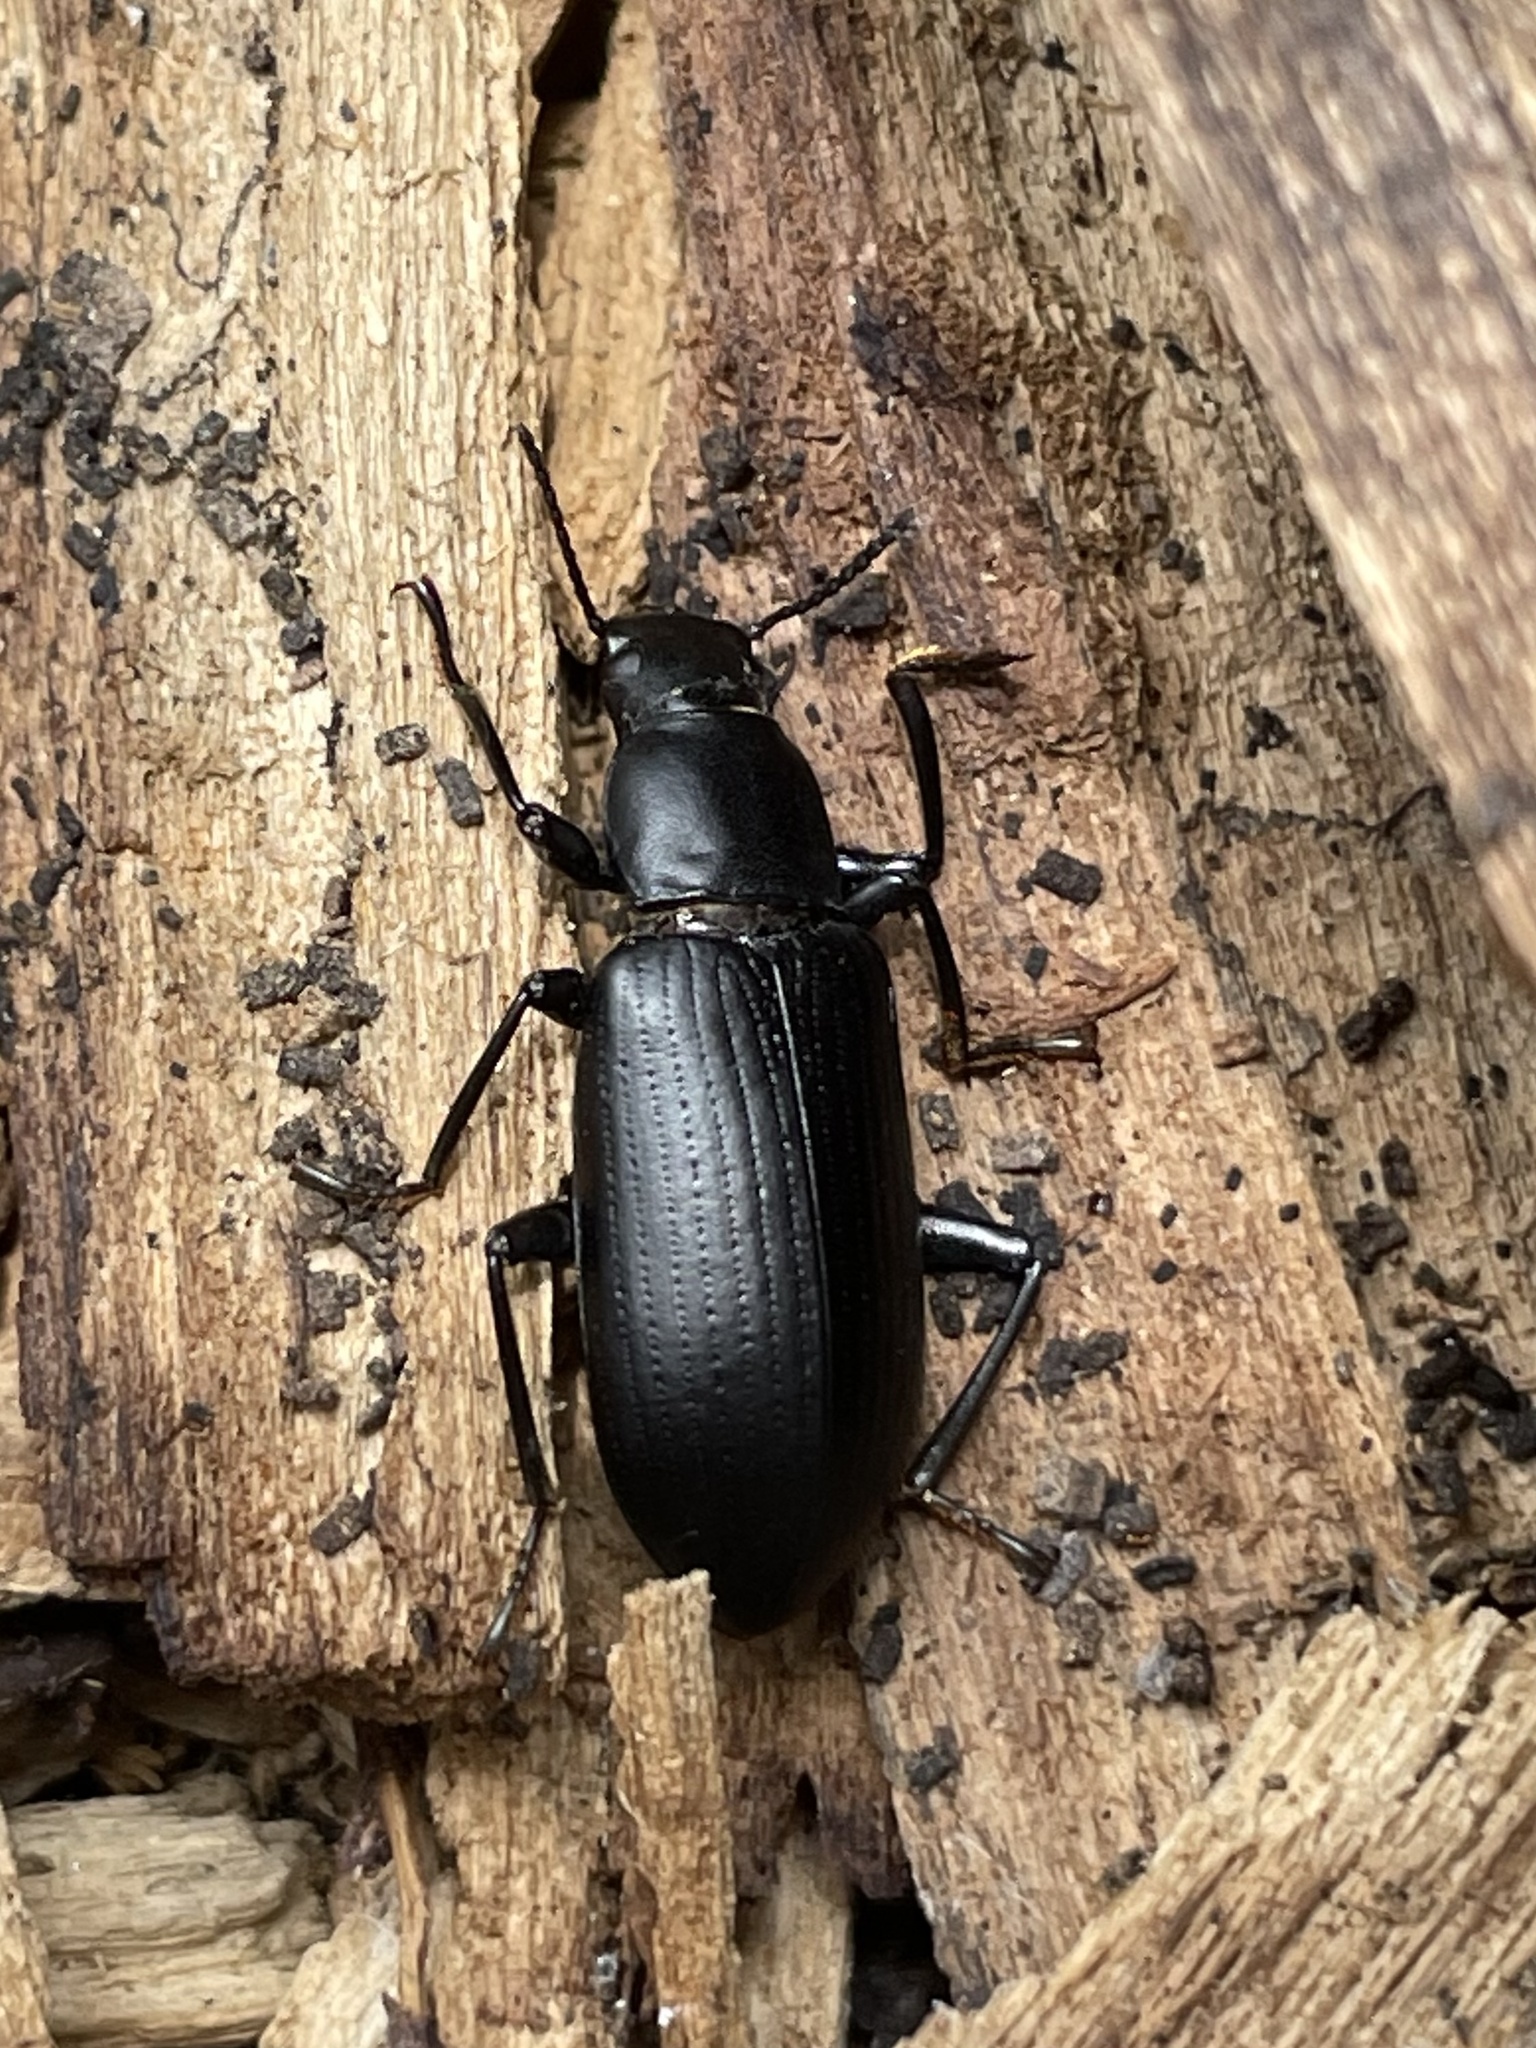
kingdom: Animalia
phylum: Arthropoda
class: Insecta
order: Coleoptera
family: Tenebrionidae
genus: Alobates
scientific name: Alobates
